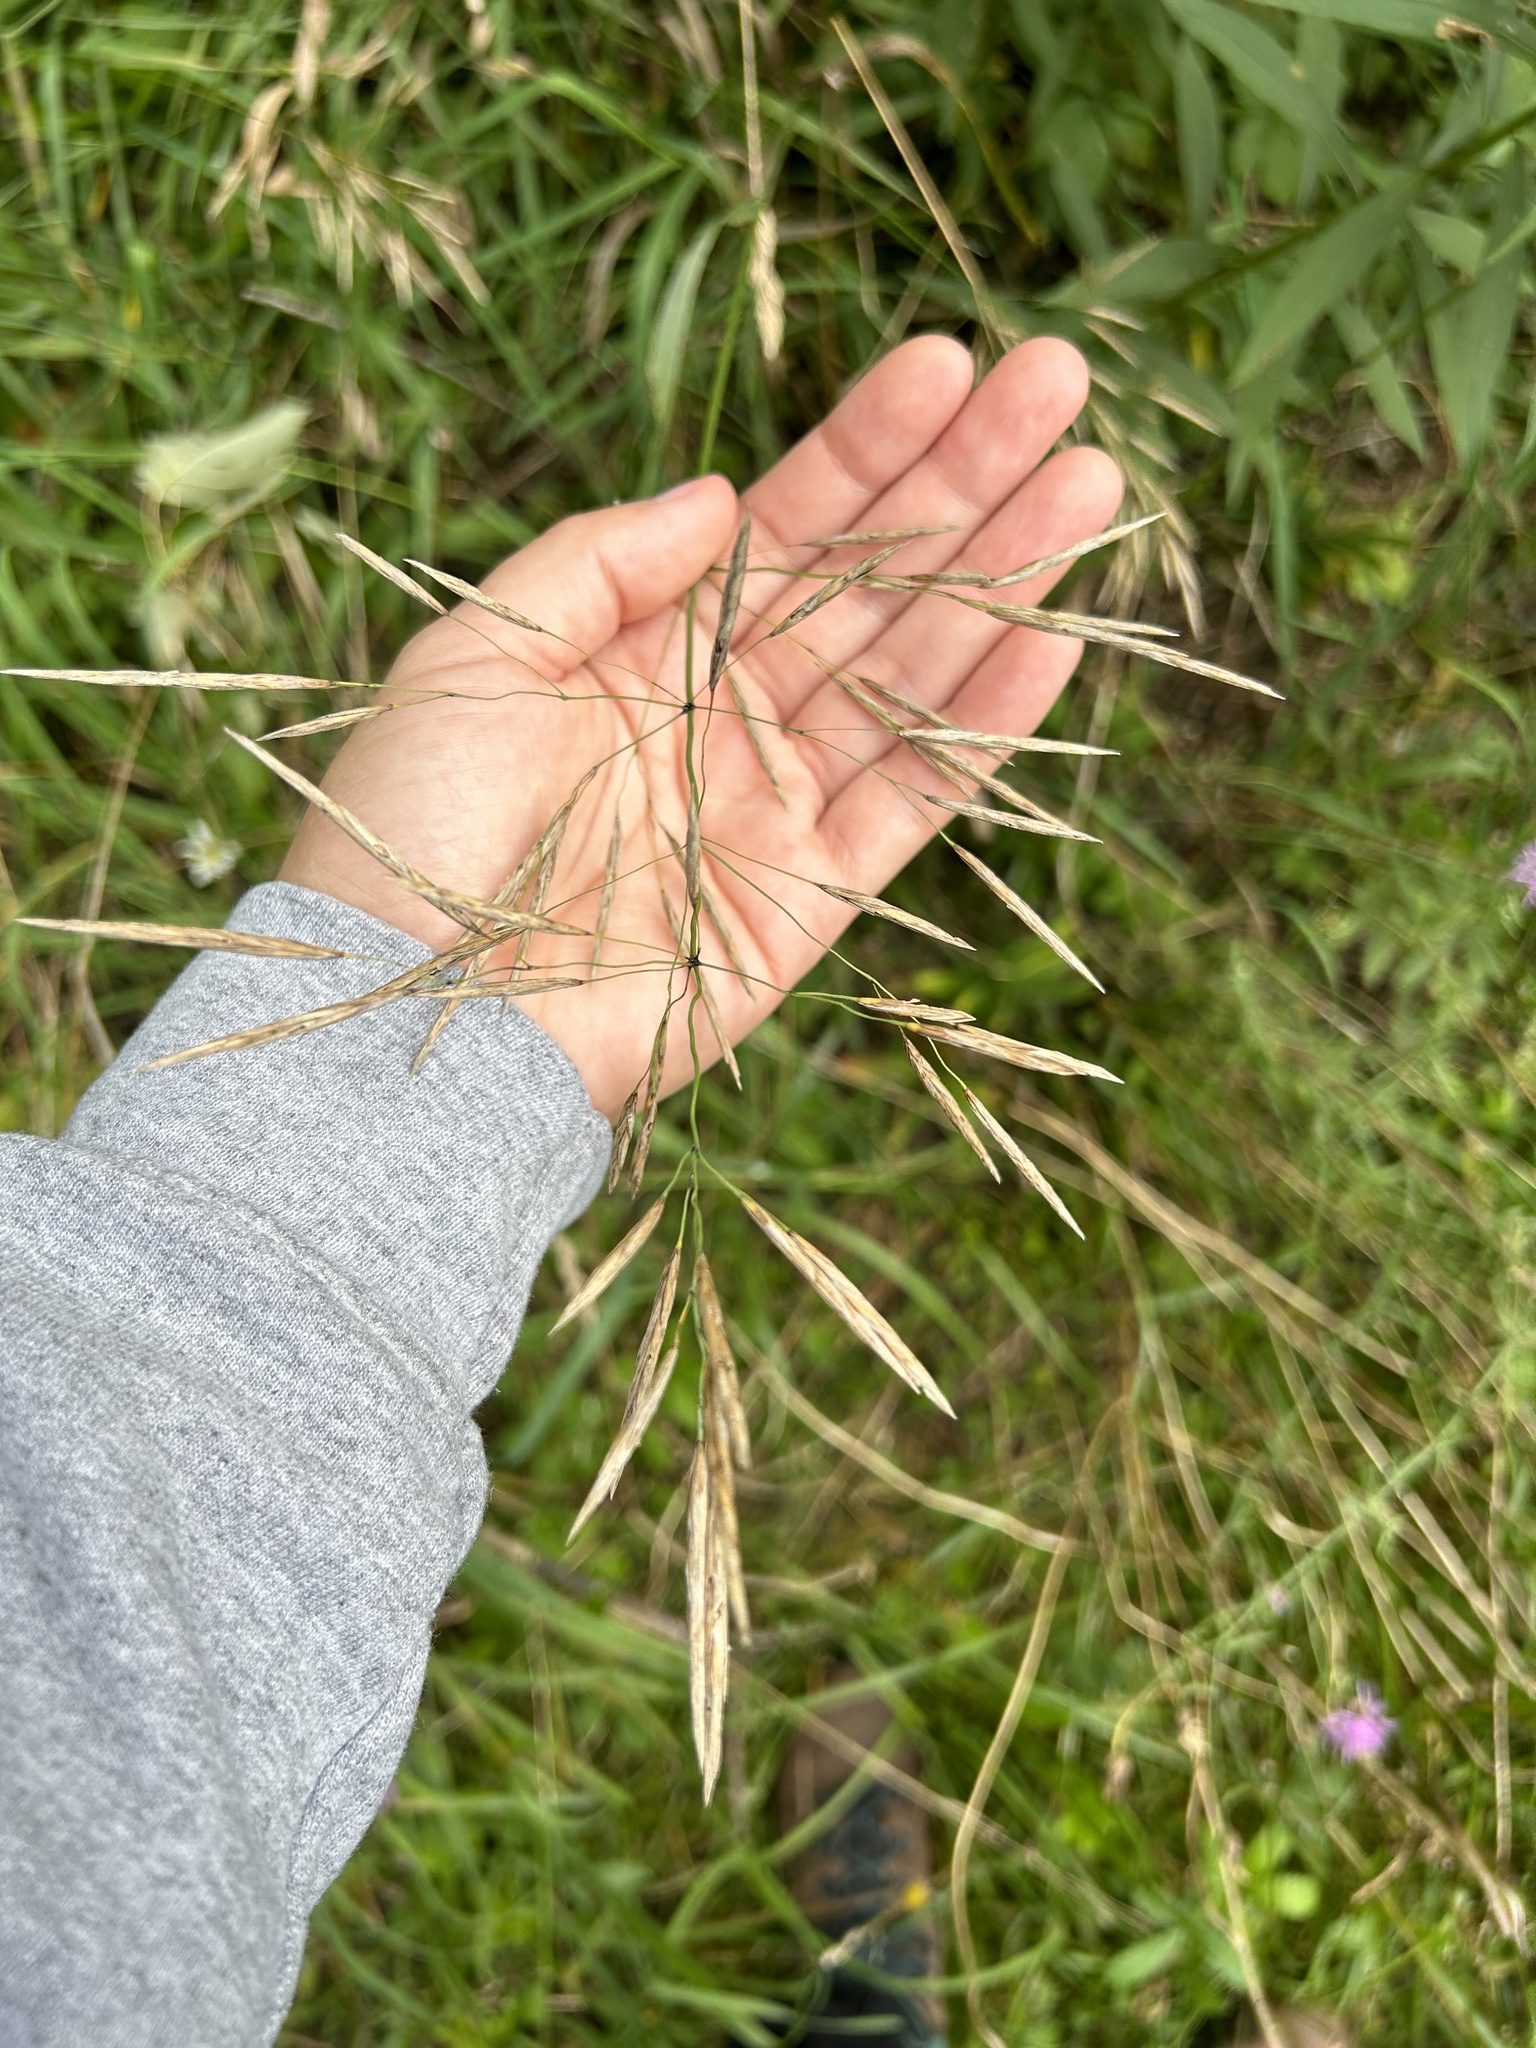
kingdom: Plantae
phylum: Tracheophyta
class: Liliopsida
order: Poales
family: Poaceae
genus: Bromus
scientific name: Bromus inermis
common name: Smooth brome
